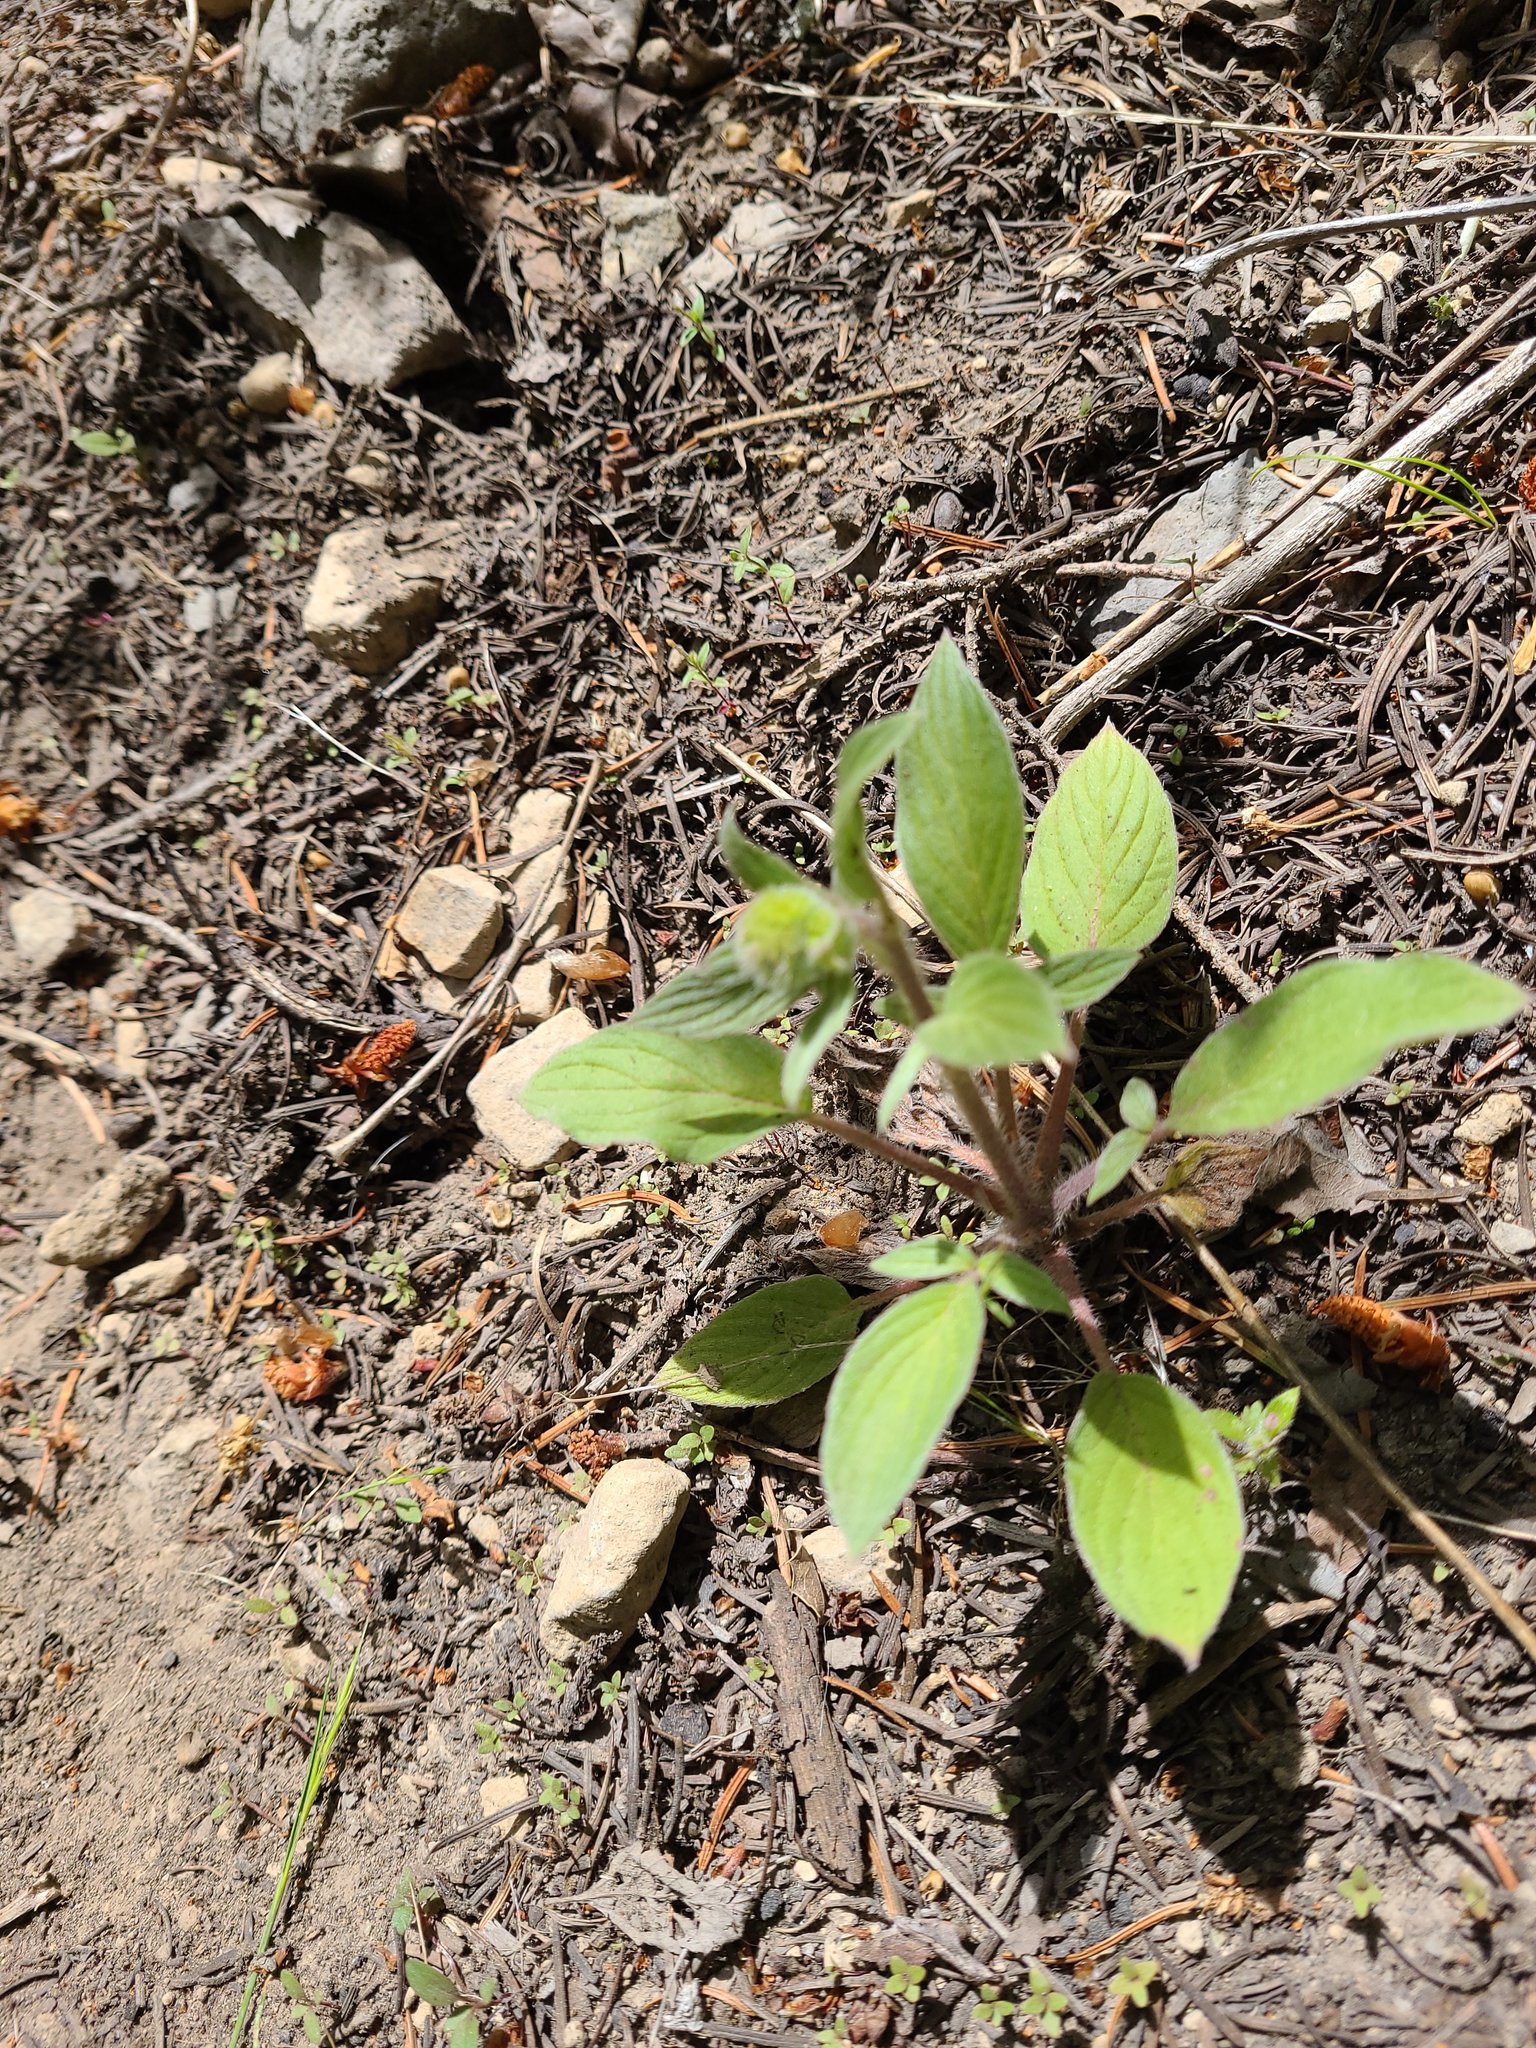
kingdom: Plantae
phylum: Tracheophyta
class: Magnoliopsida
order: Boraginales
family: Hydrophyllaceae
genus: Phacelia
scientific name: Phacelia hastata
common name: Silver-leaved phacelia
